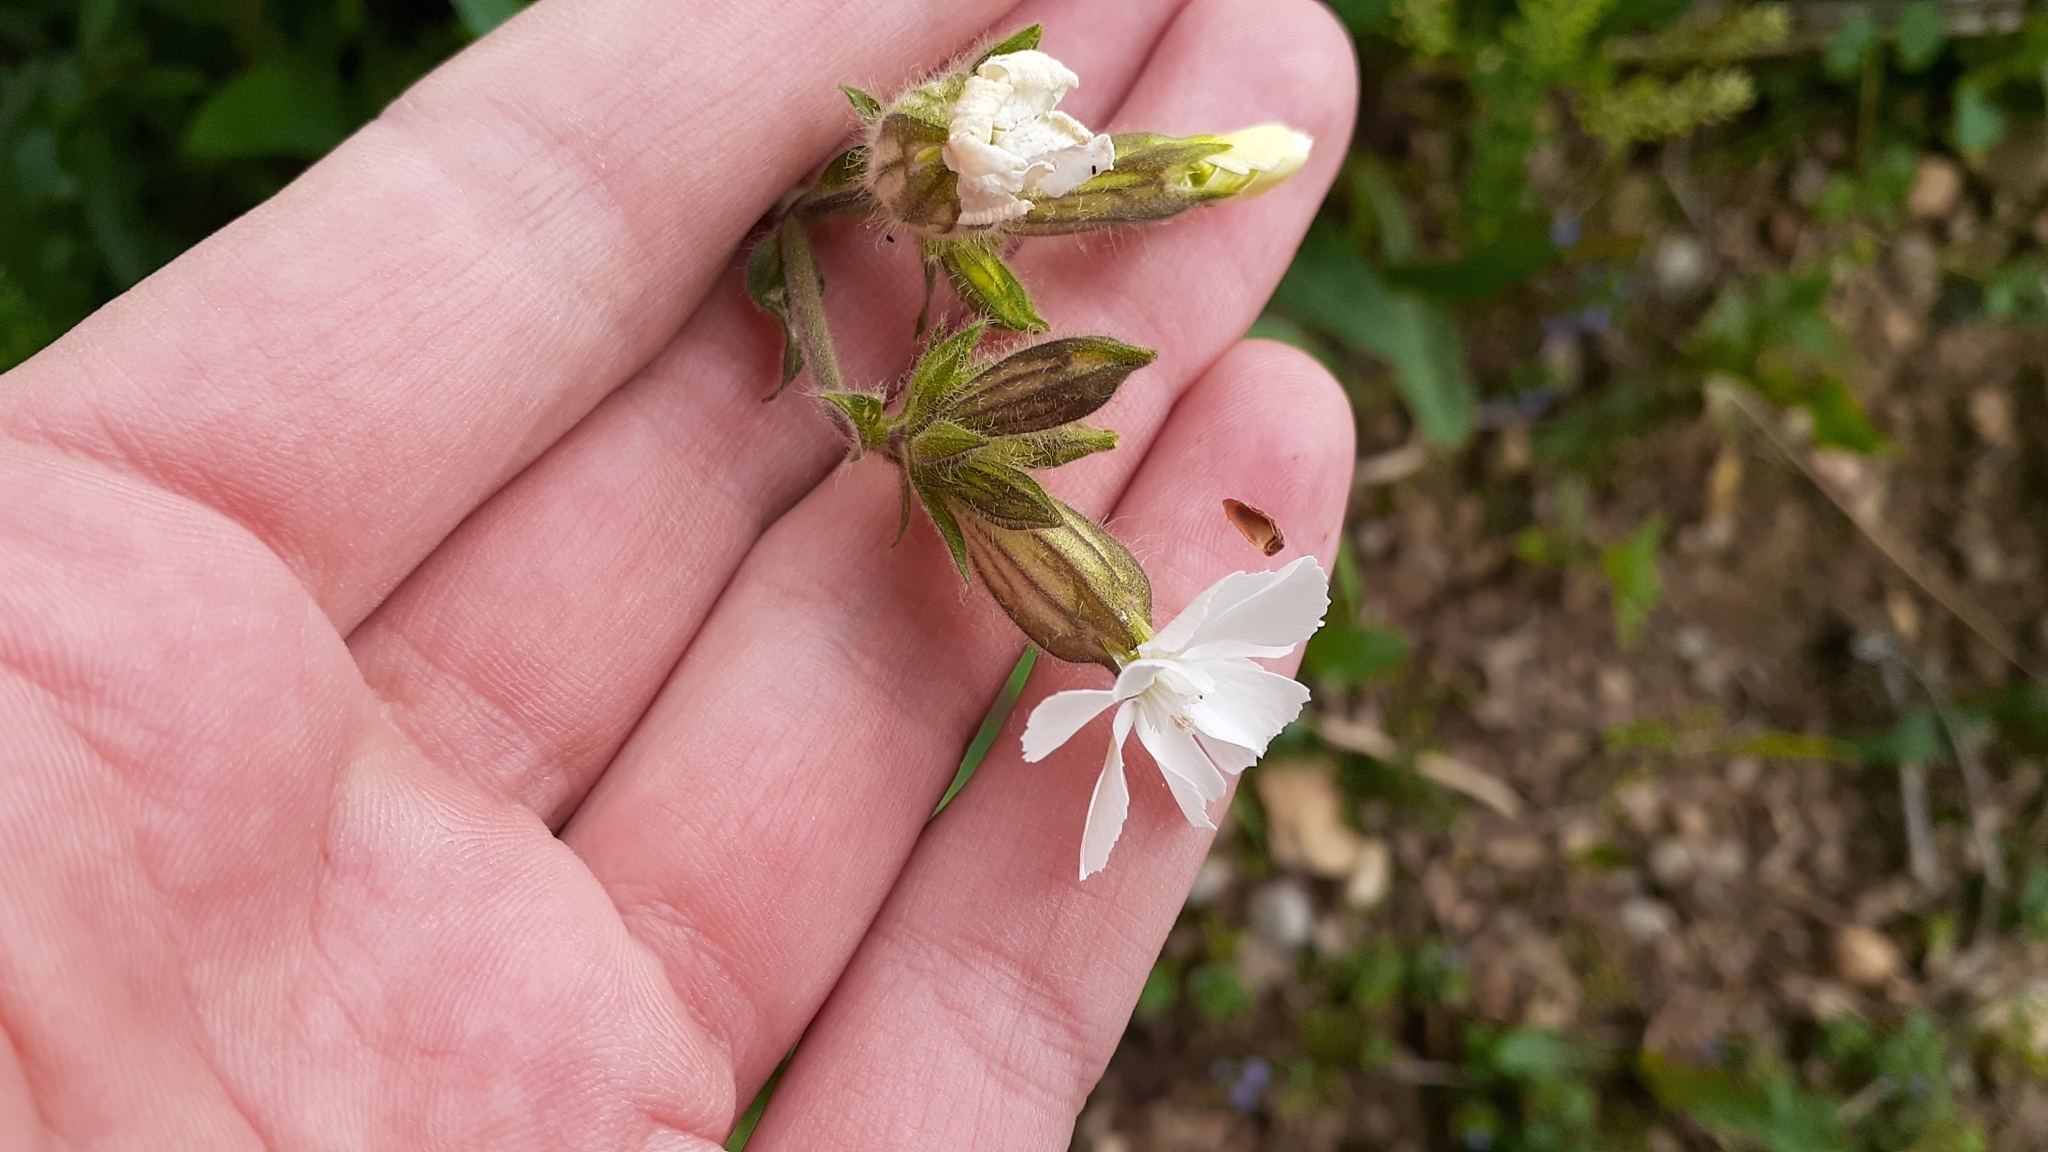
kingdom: Plantae
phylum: Tracheophyta
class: Magnoliopsida
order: Caryophyllales
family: Caryophyllaceae
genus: Silene
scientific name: Silene latifolia
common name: White campion
